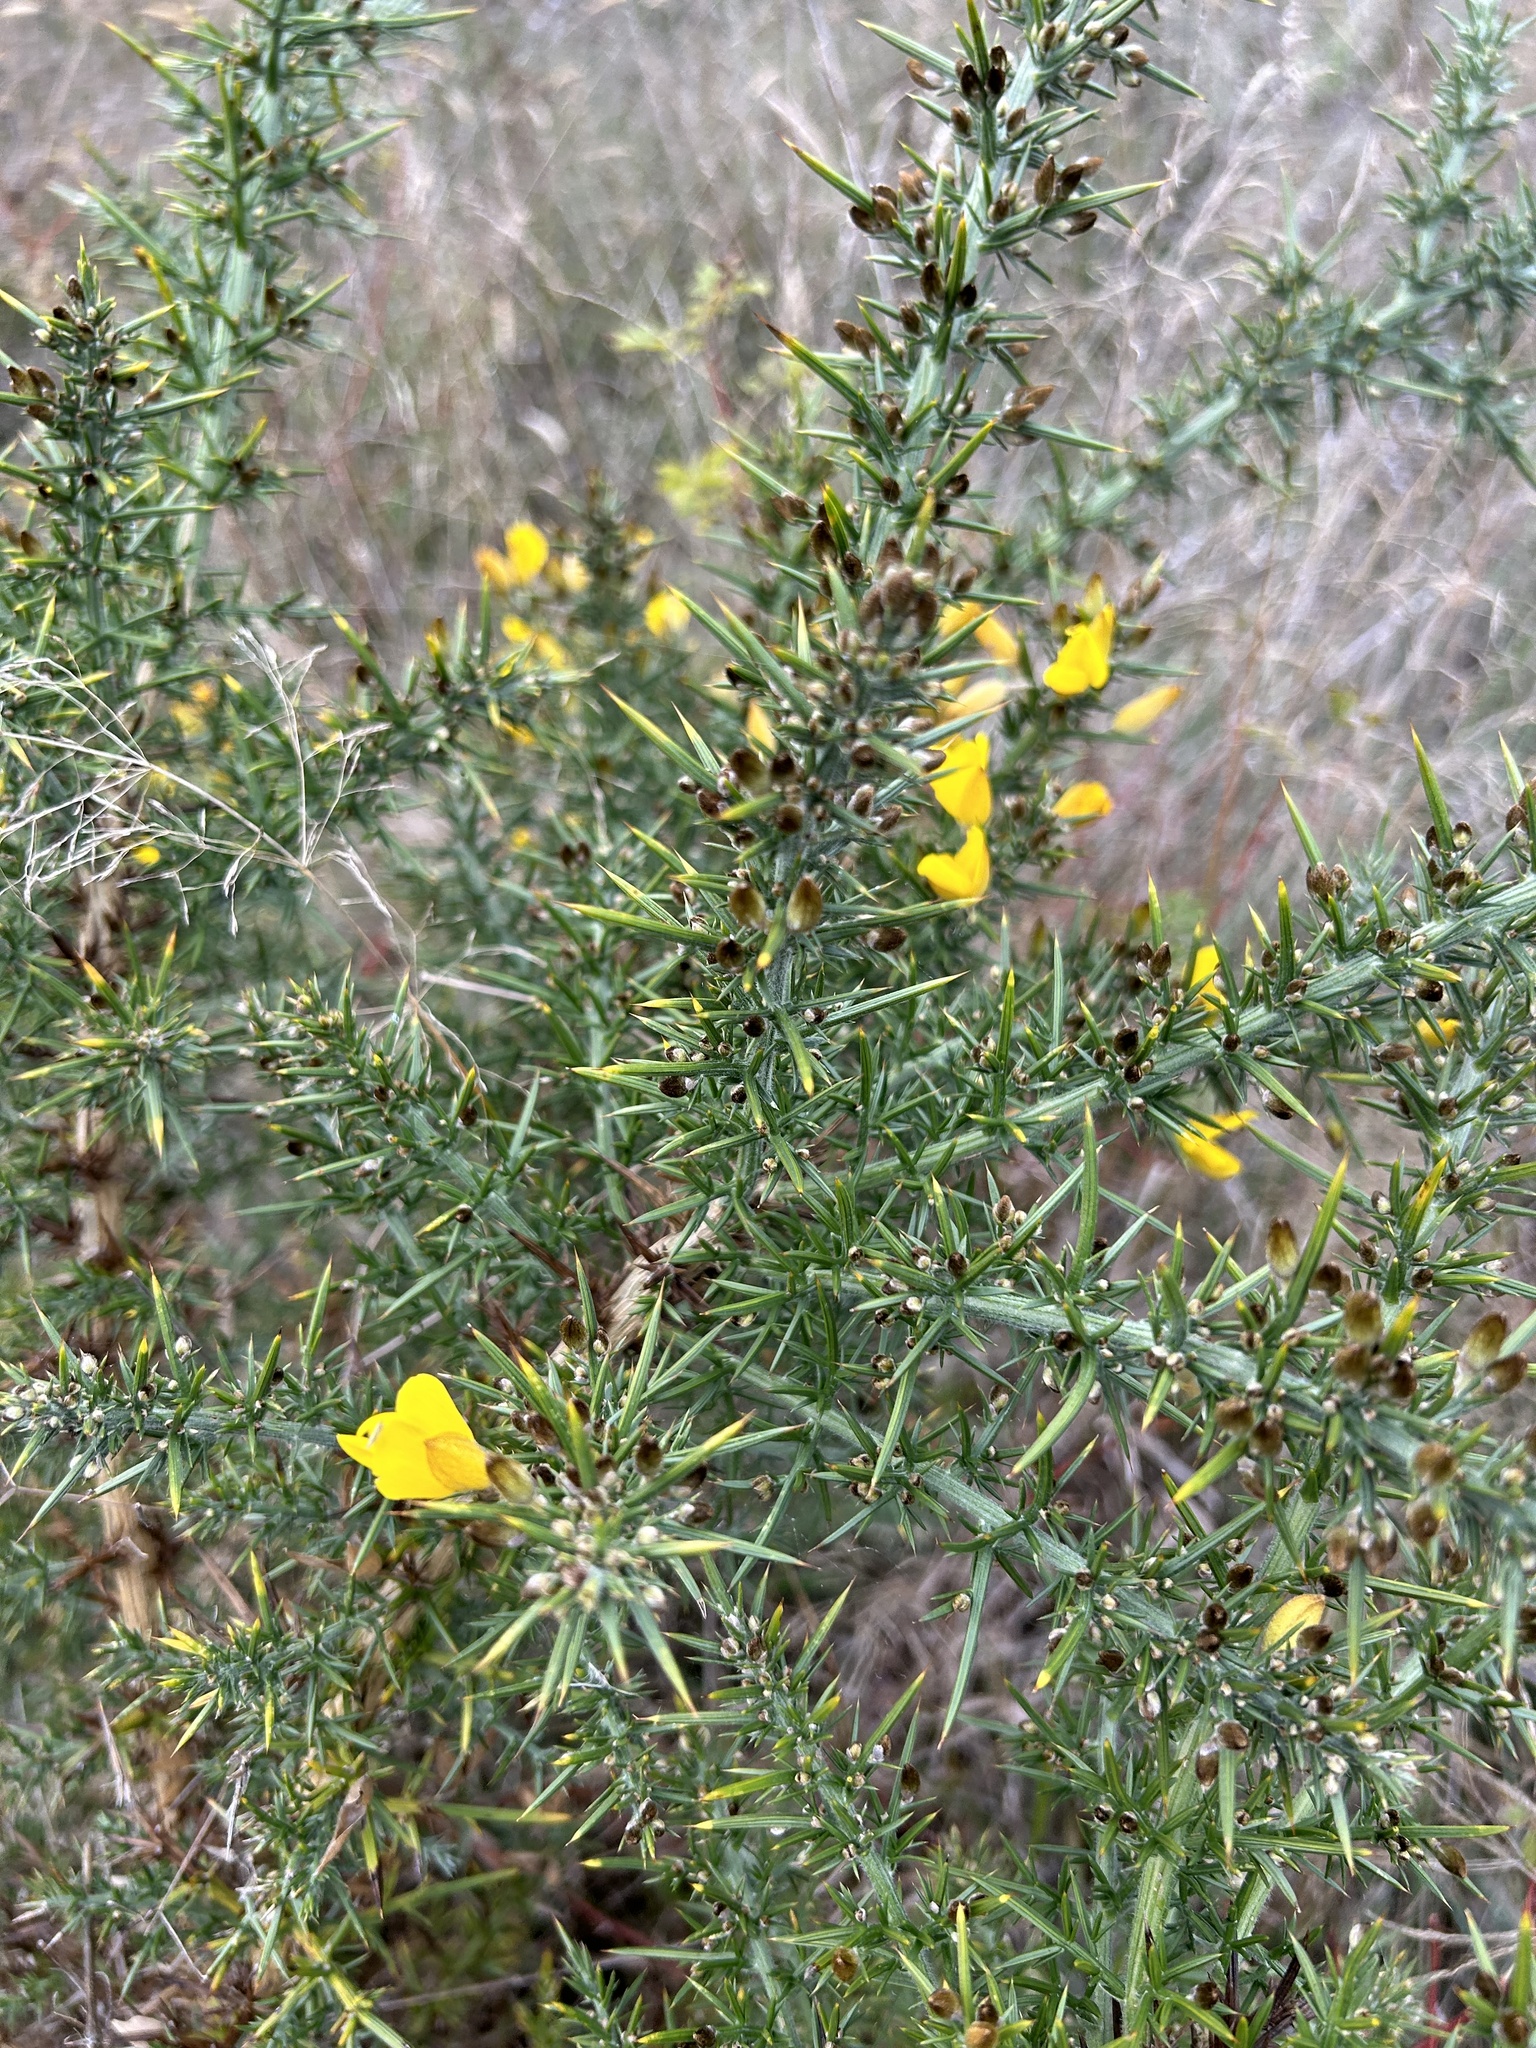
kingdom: Plantae
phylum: Tracheophyta
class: Magnoliopsida
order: Fabales
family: Fabaceae
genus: Ulex
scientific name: Ulex europaeus
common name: Common gorse
